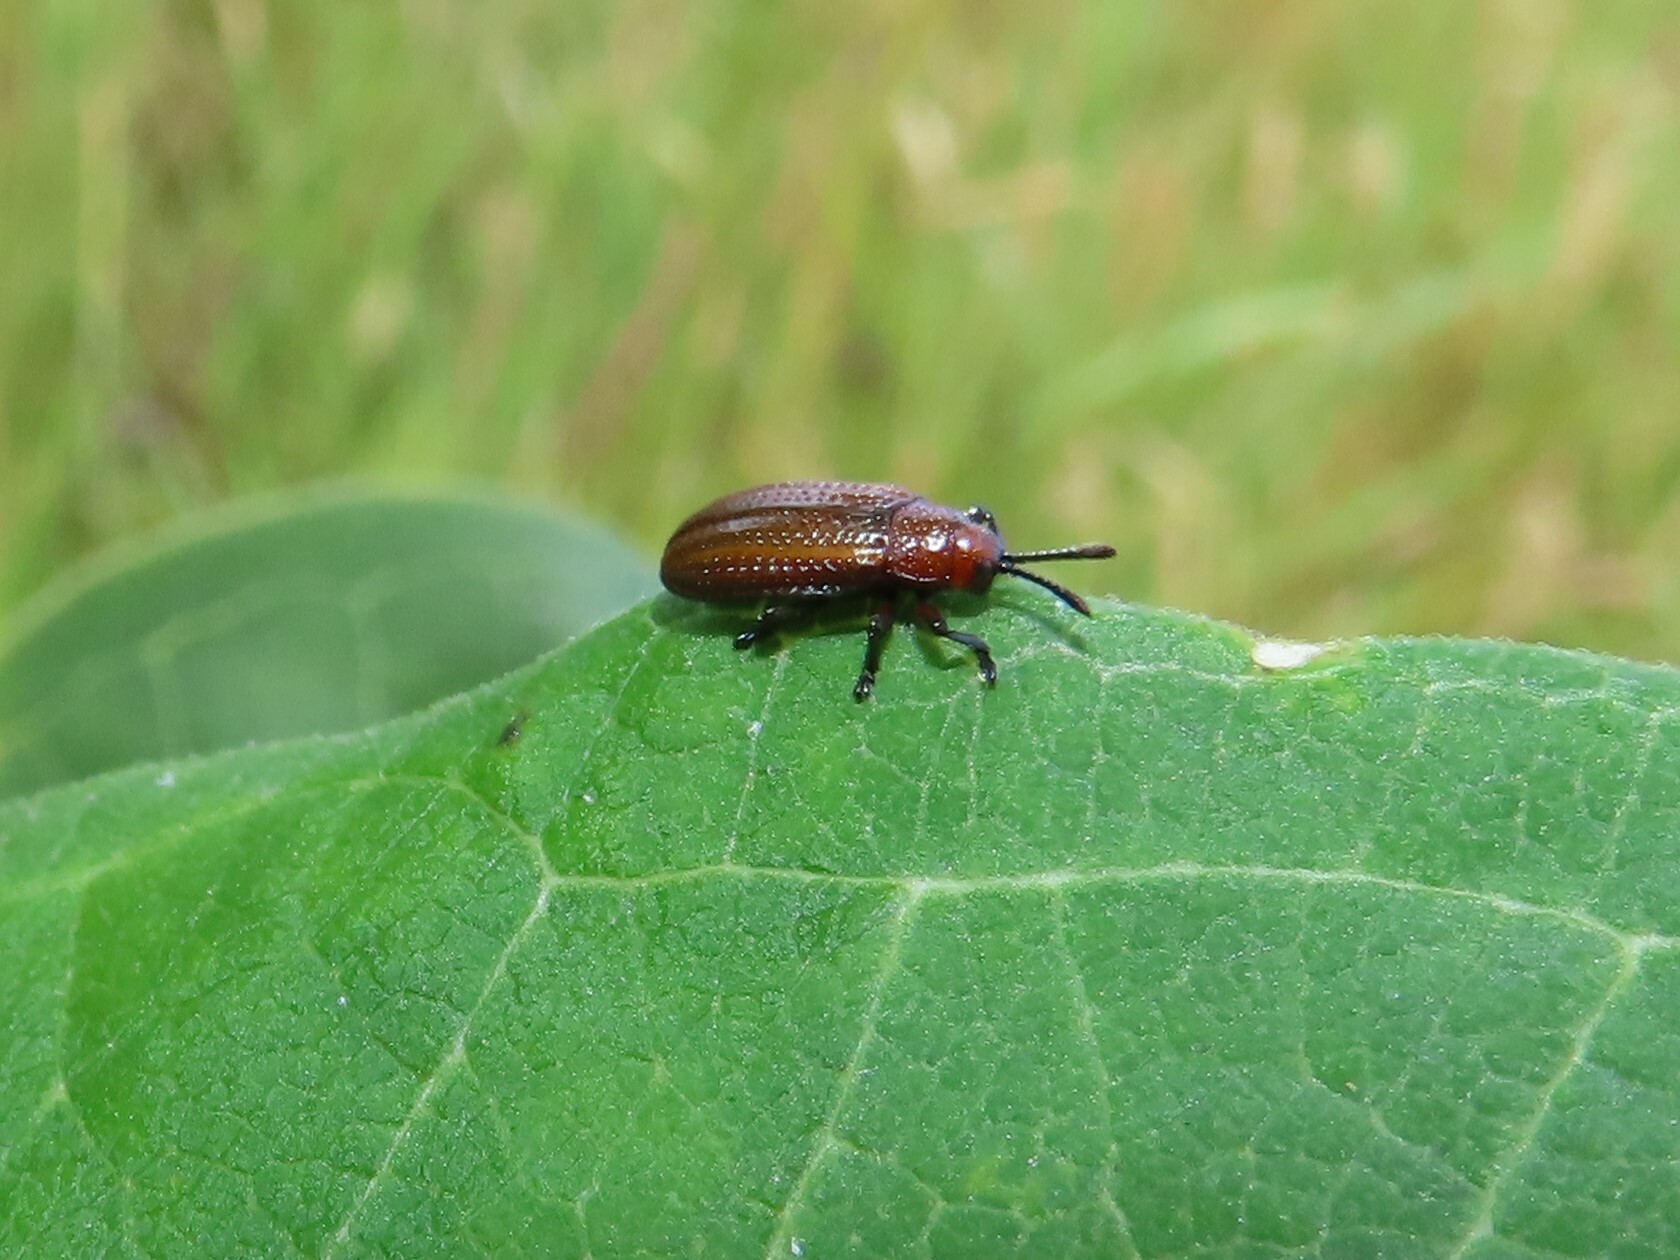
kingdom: Animalia
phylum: Arthropoda
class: Insecta
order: Coleoptera
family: Chrysomelidae
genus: Microrhopala
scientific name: Microrhopala vittata
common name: Goldenrod leaf miner beetle
